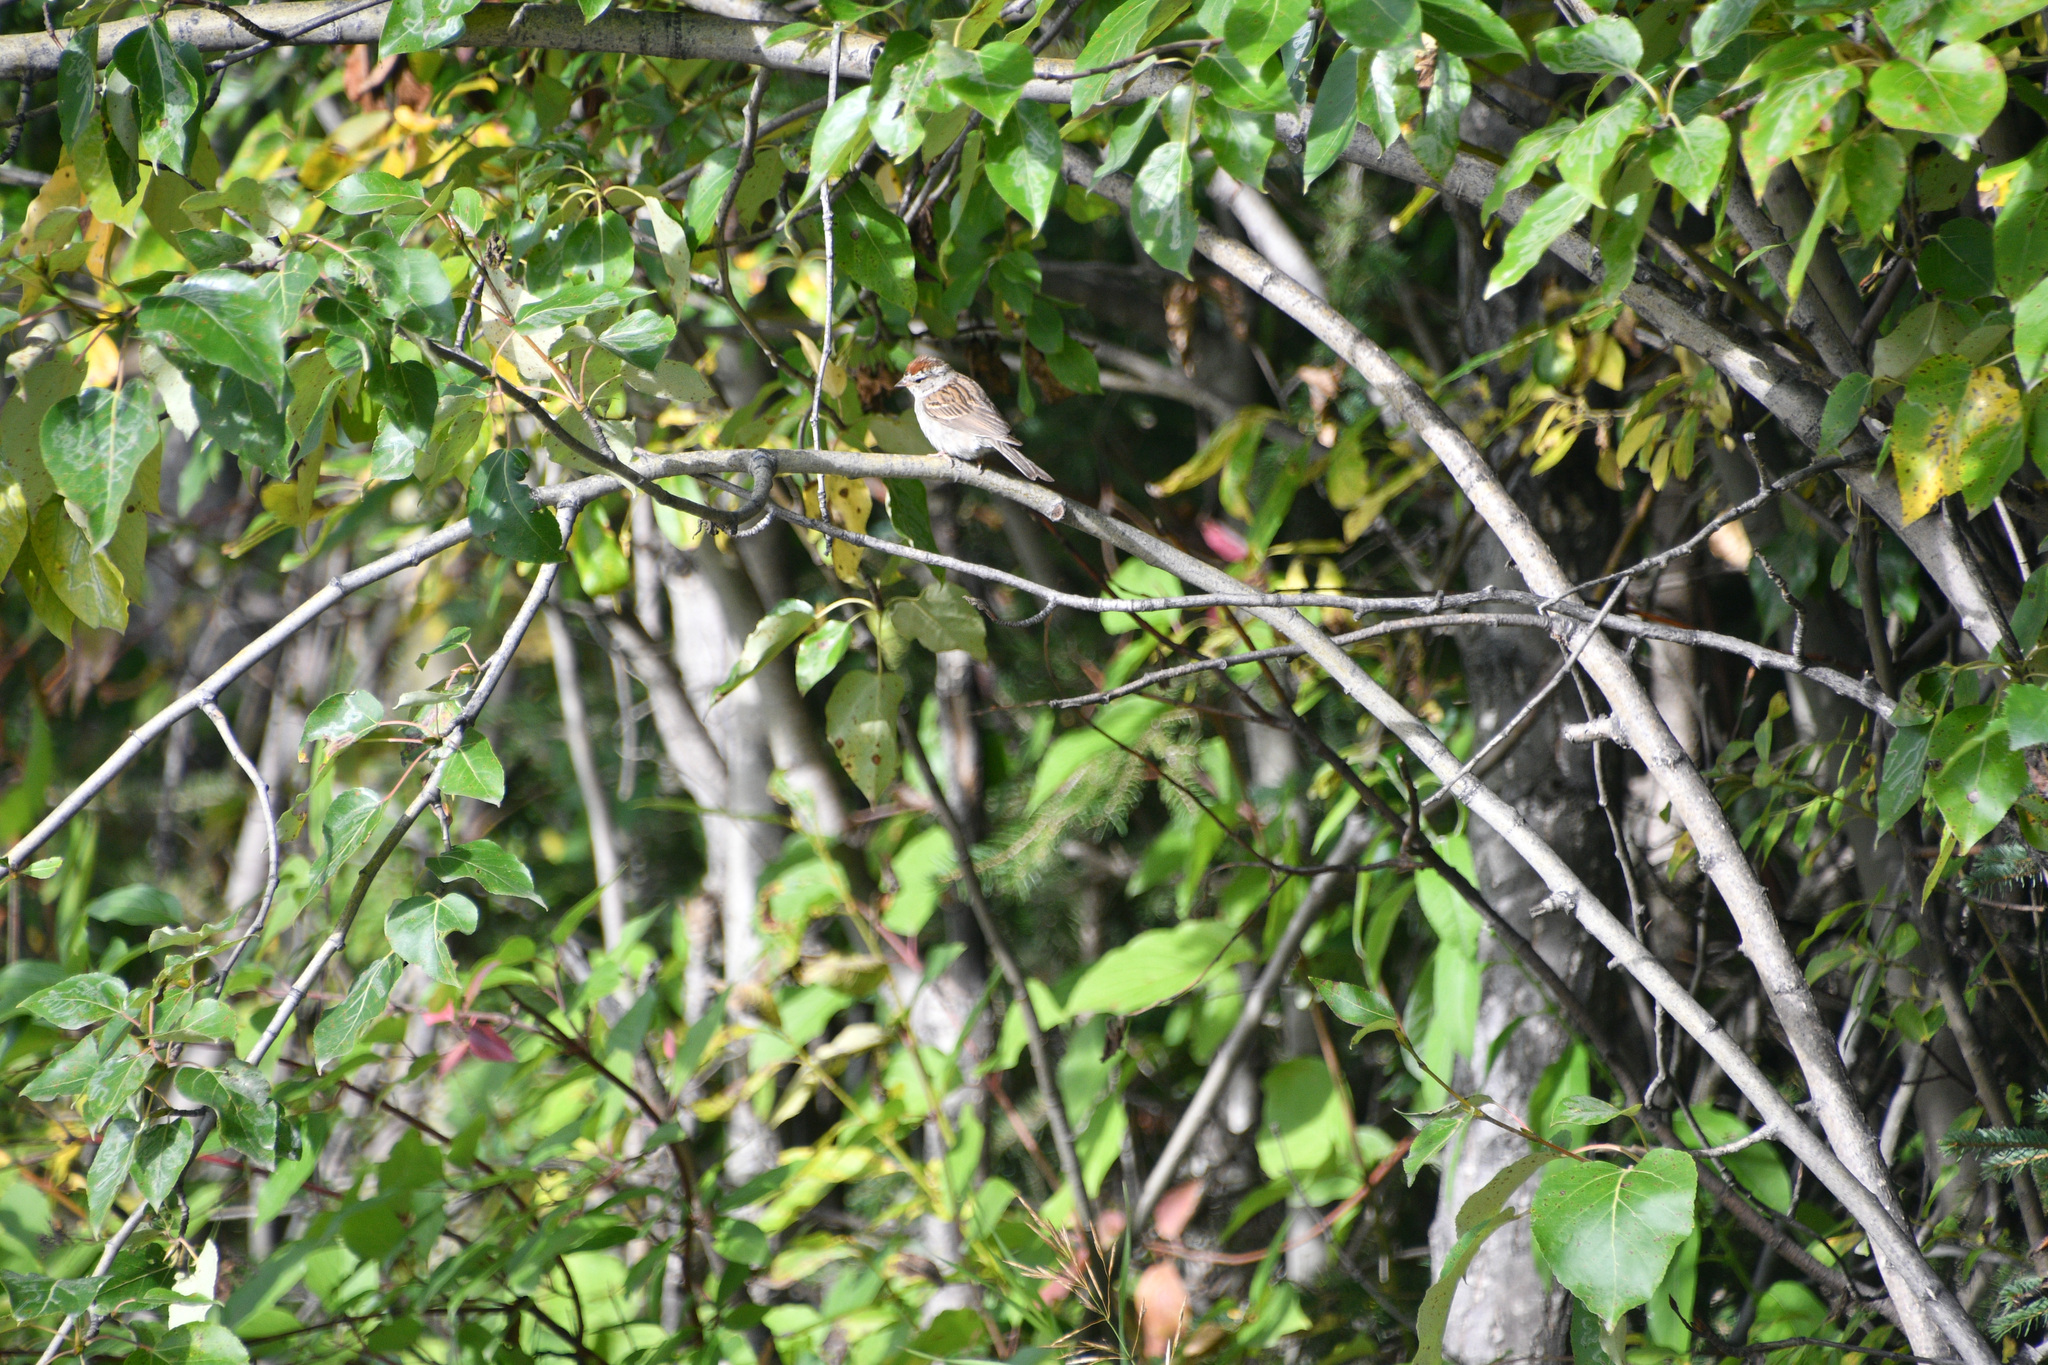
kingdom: Animalia
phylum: Chordata
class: Aves
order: Passeriformes
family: Passerellidae
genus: Spizella
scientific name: Spizella passerina
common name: Chipping sparrow
